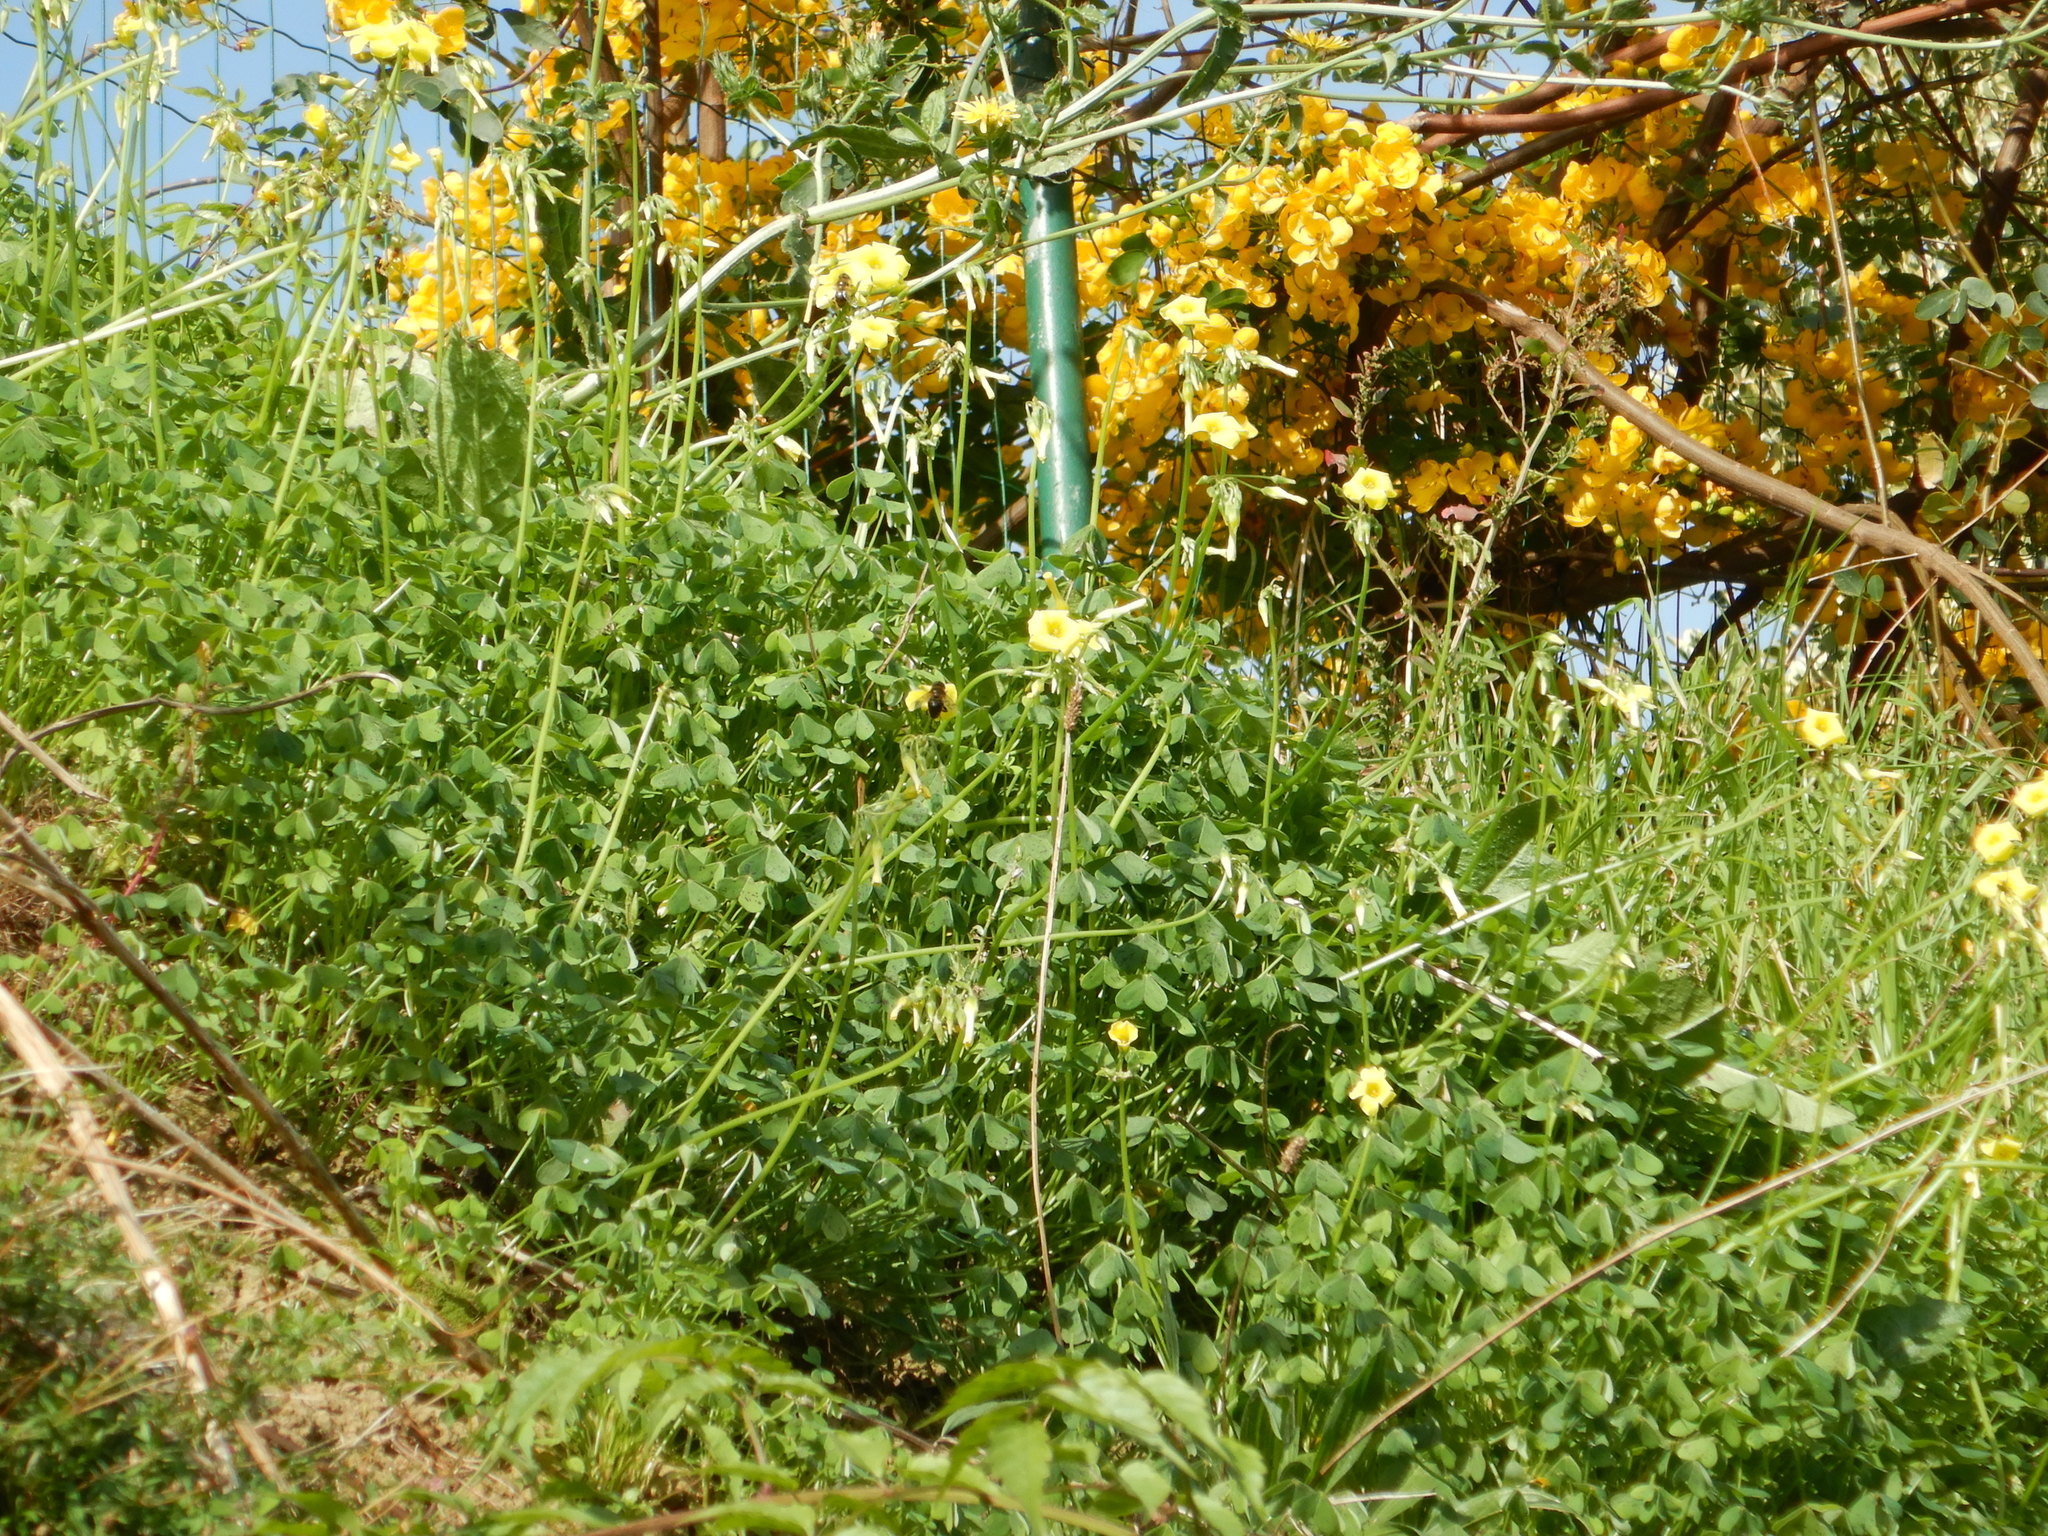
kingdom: Plantae
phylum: Tracheophyta
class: Magnoliopsida
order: Oxalidales
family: Oxalidaceae
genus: Oxalis
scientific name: Oxalis pes-caprae
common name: Bermuda-buttercup
